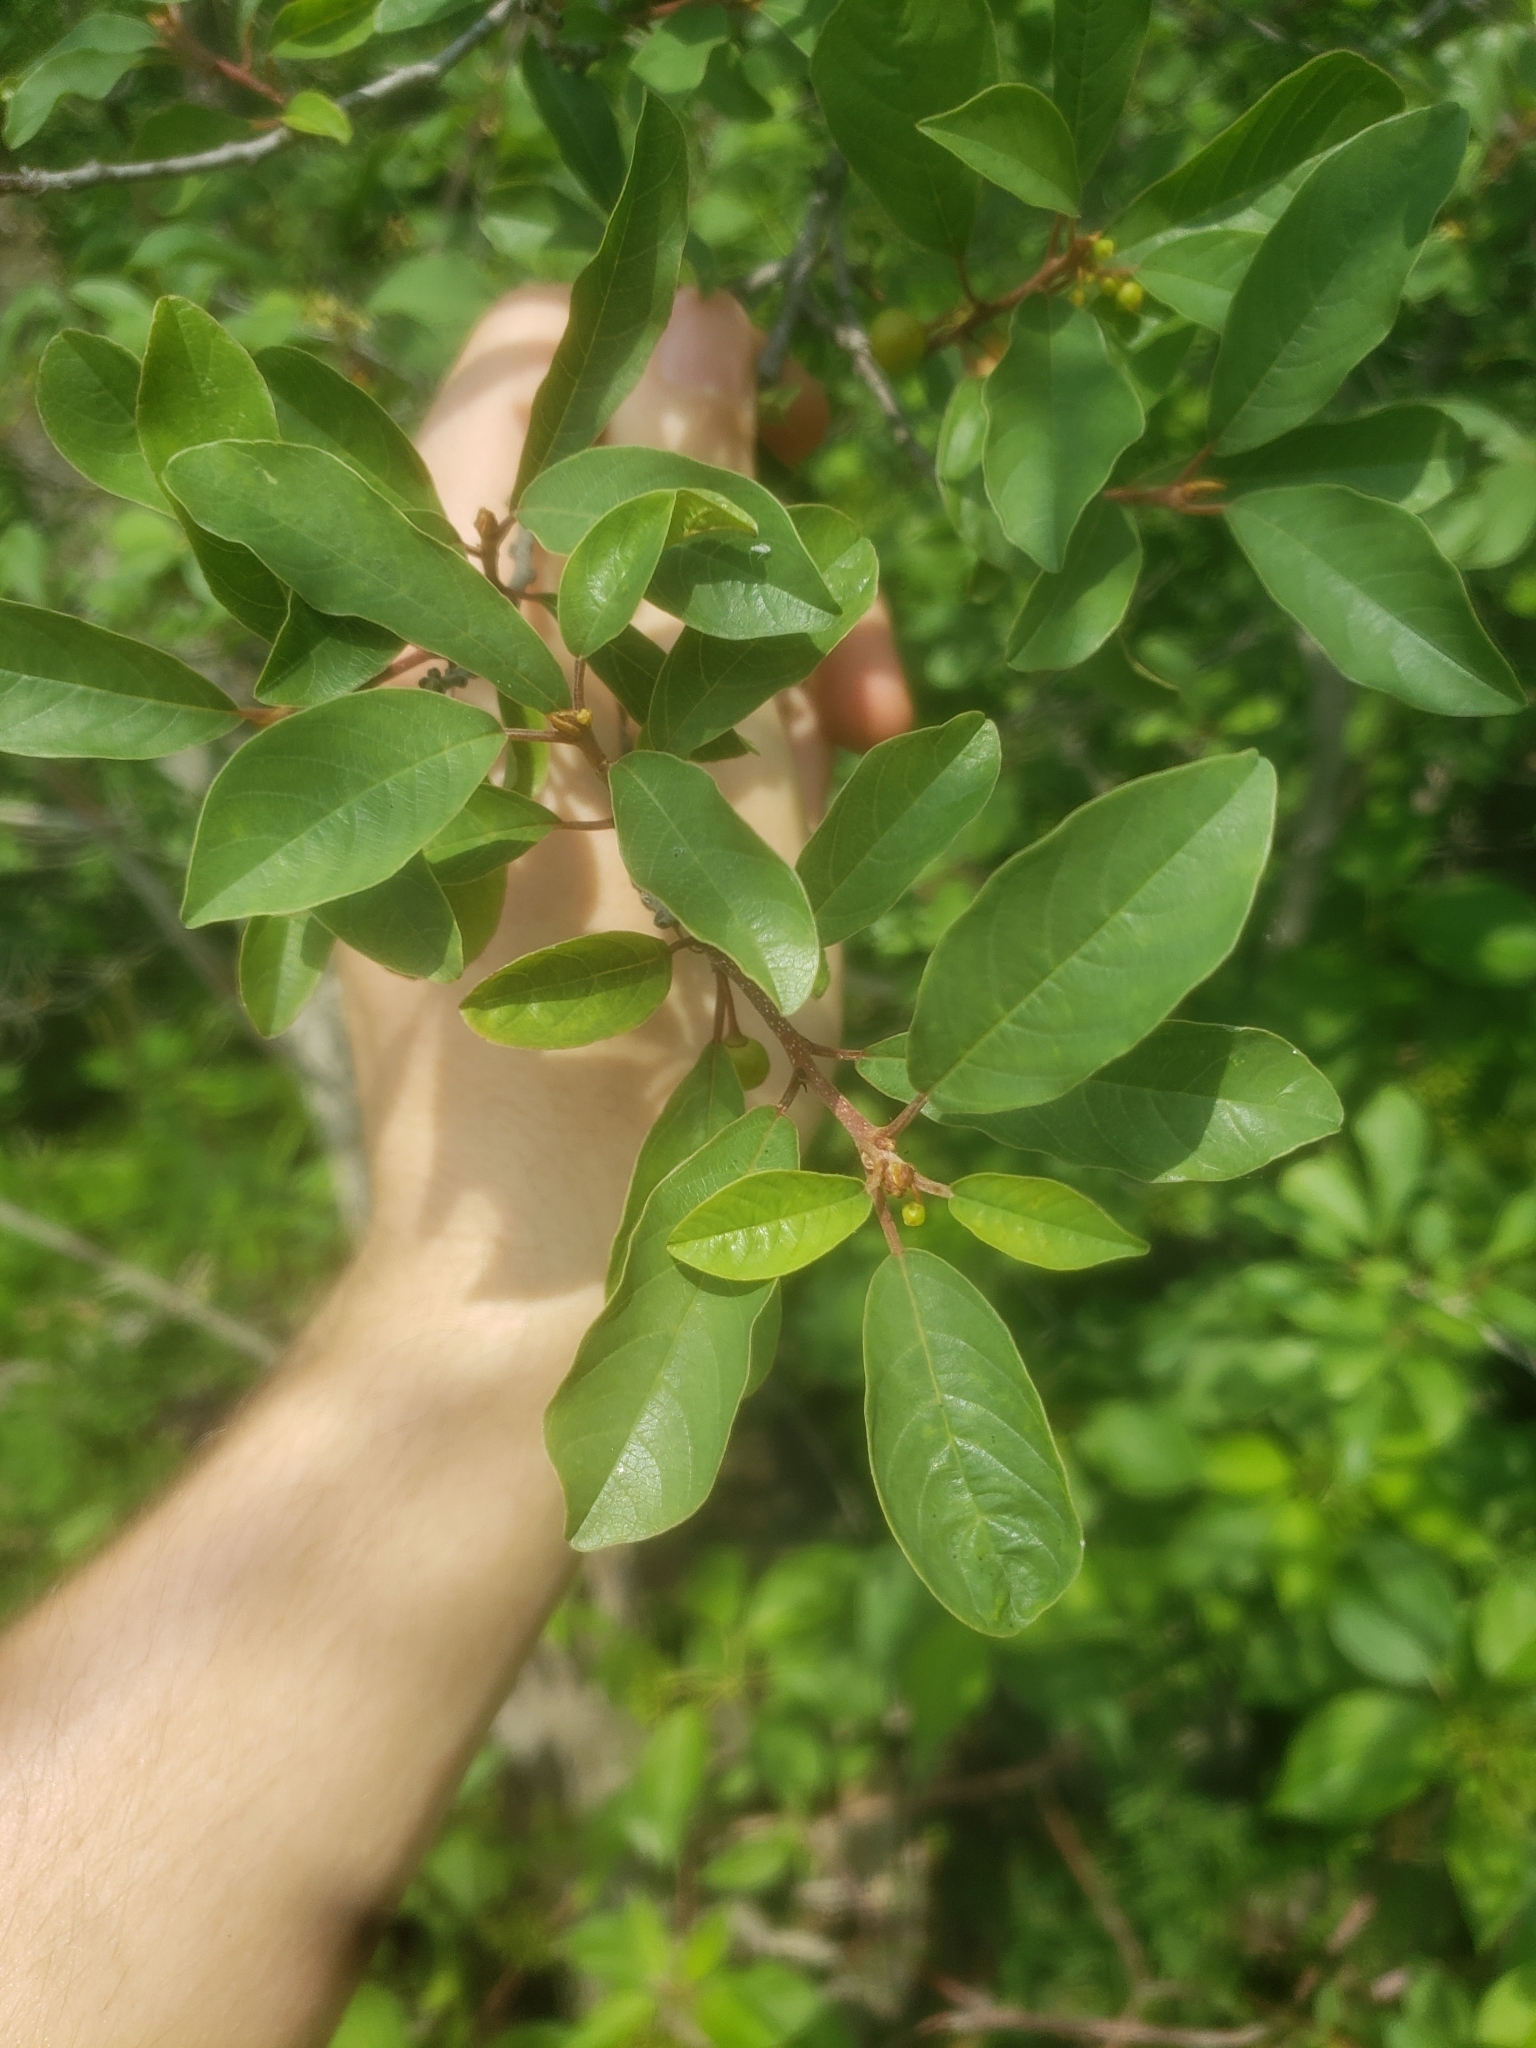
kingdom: Plantae
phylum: Tracheophyta
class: Magnoliopsida
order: Rosales
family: Rhamnaceae
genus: Frangula
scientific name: Frangula alnus
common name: Alder buckthorn
